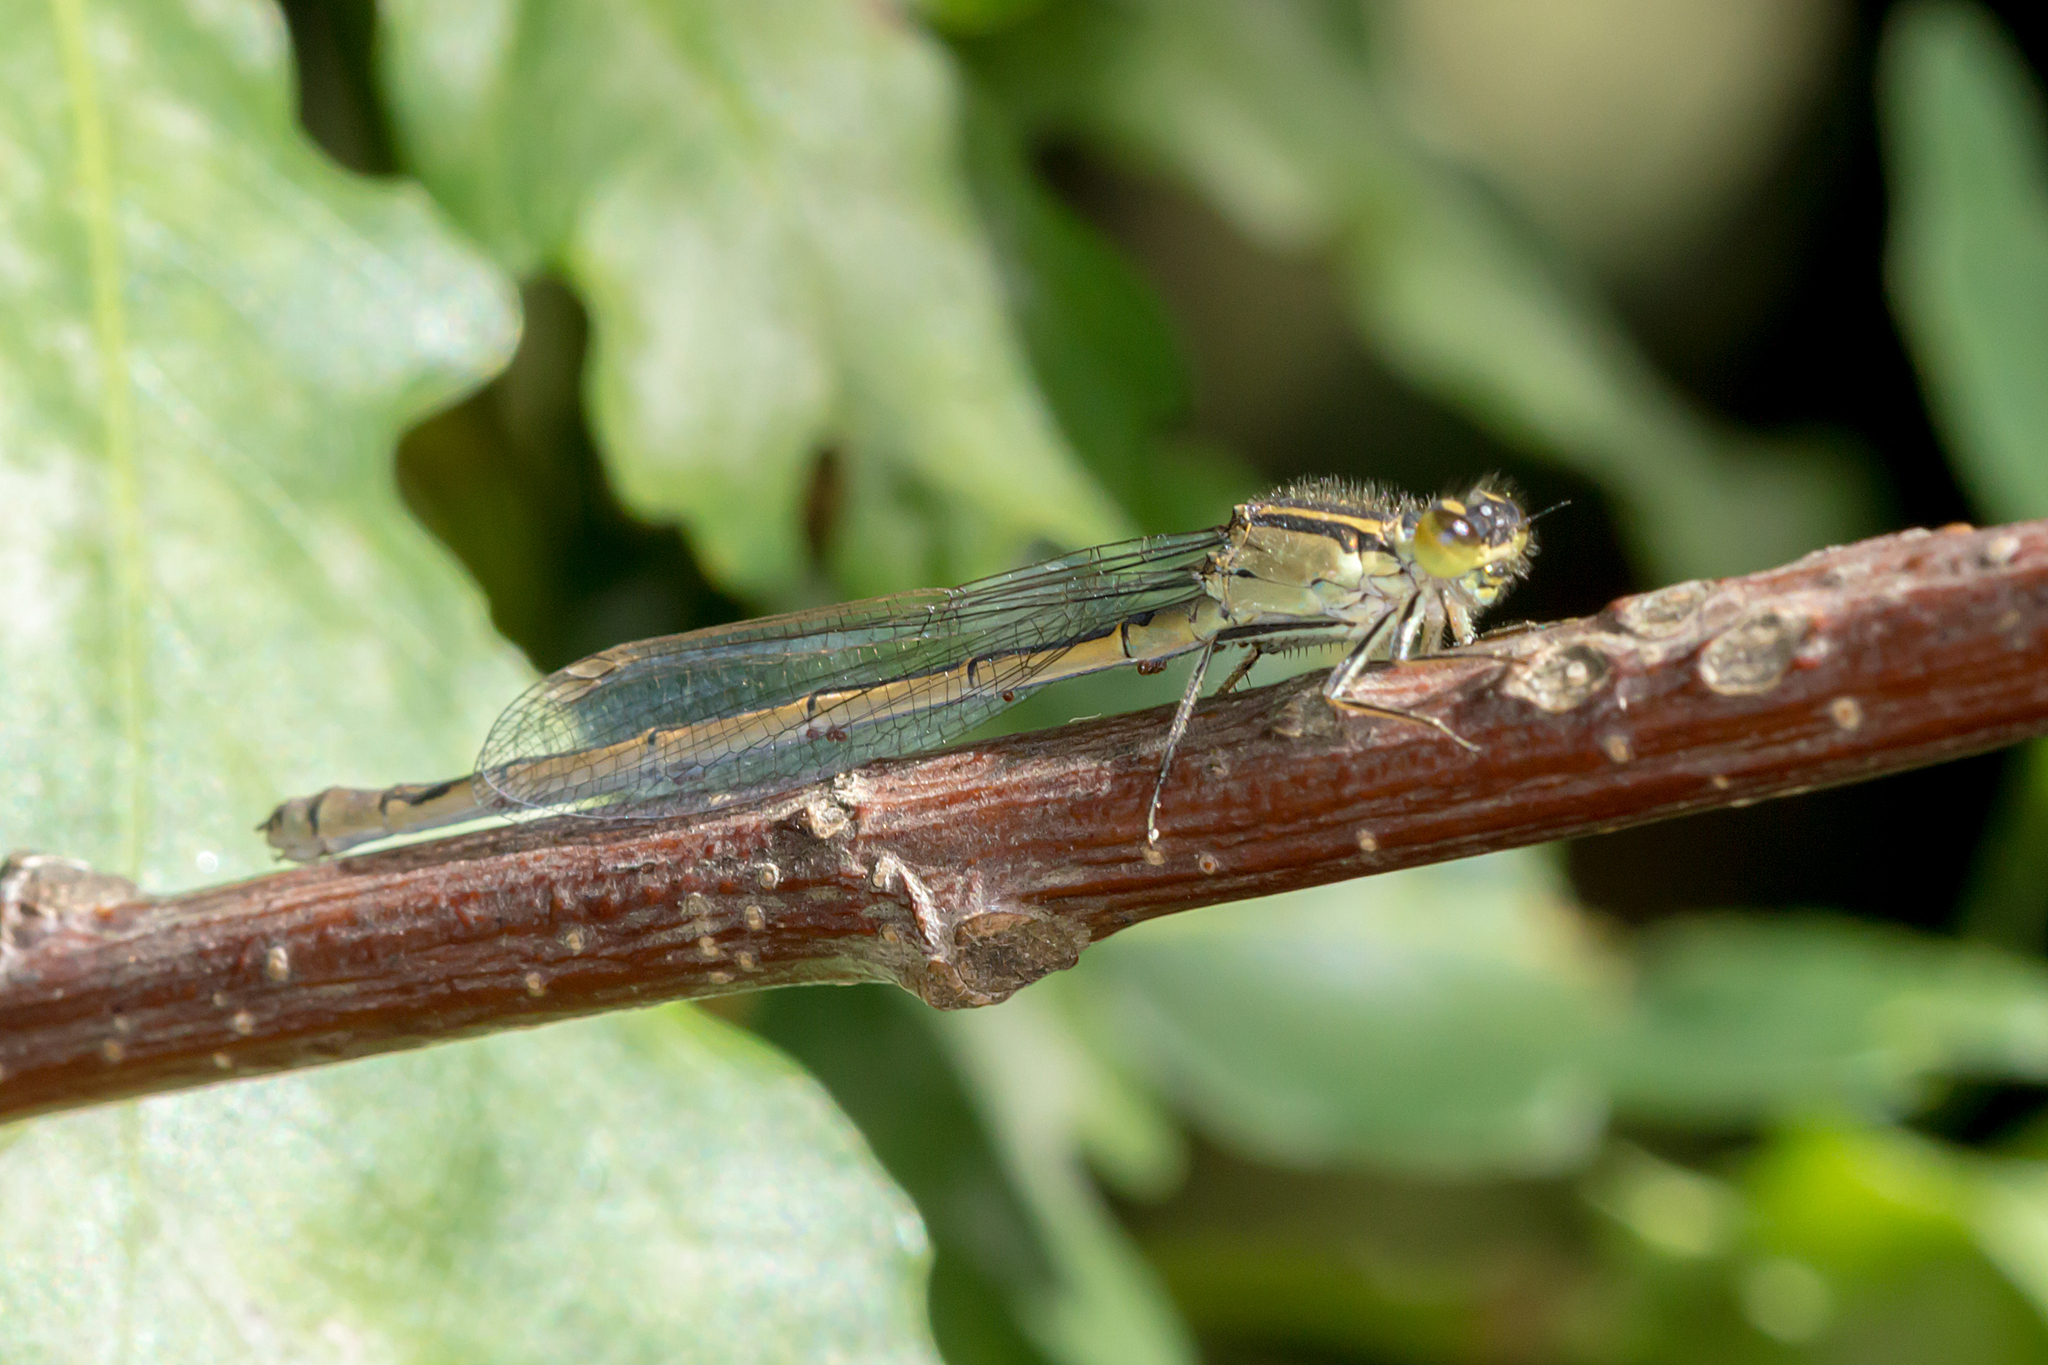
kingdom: Animalia
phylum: Arthropoda
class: Insecta
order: Odonata
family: Coenagrionidae
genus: Ischnura
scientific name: Ischnura heterosticta
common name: Common bluetail
